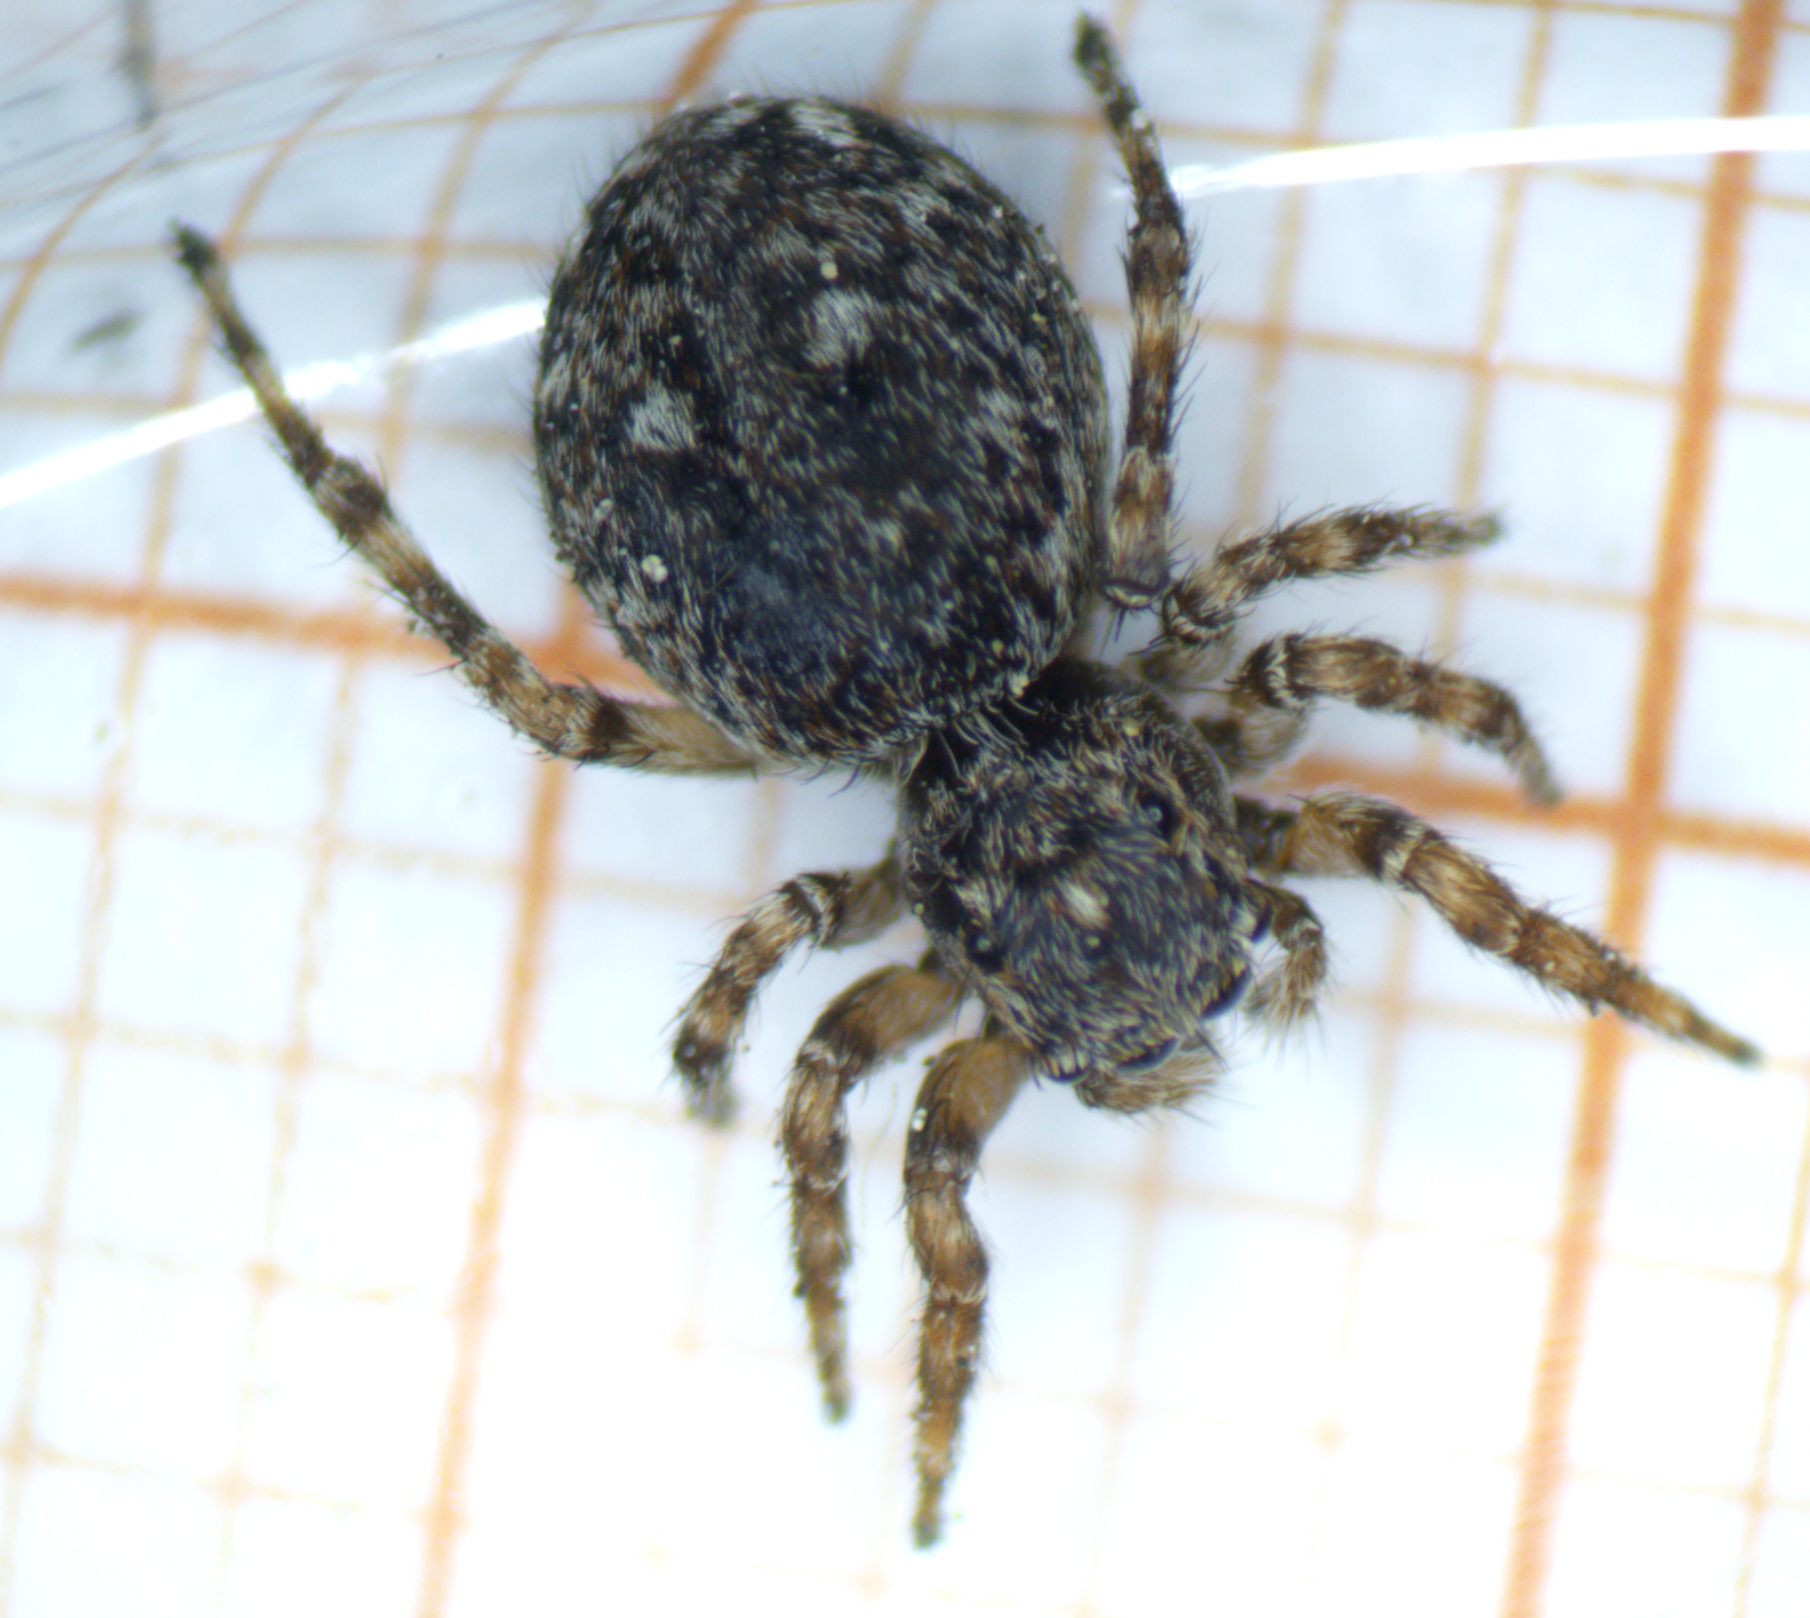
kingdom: Animalia
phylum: Arthropoda
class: Arachnida
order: Araneae
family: Salticidae
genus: Attulus
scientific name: Attulus pubescens
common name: Jumping spider
